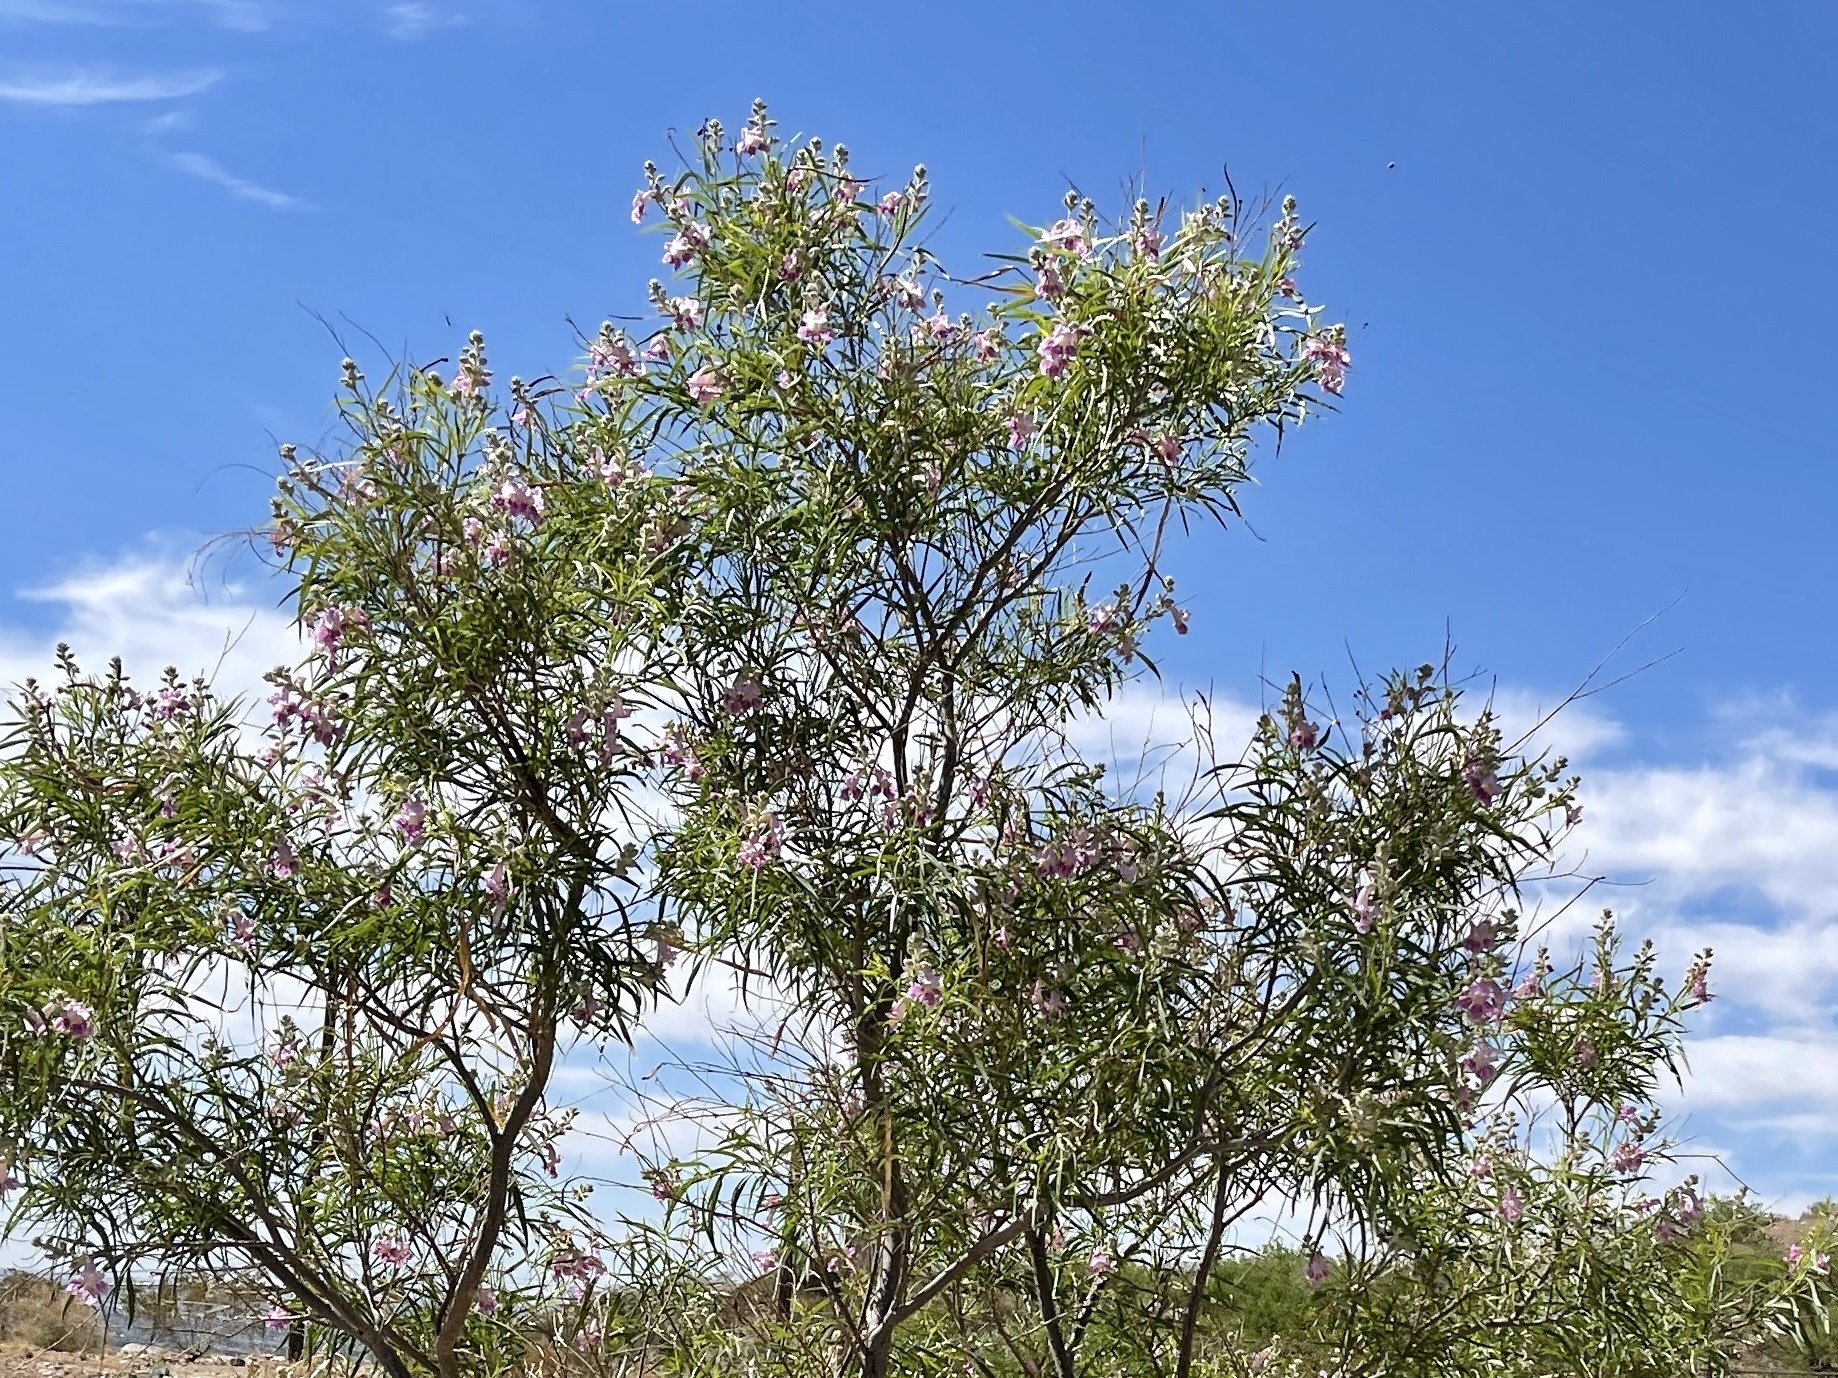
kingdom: Plantae
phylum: Tracheophyta
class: Magnoliopsida
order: Lamiales
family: Bignoniaceae
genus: Chilopsis
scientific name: Chilopsis linearis
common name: Desert-willow
